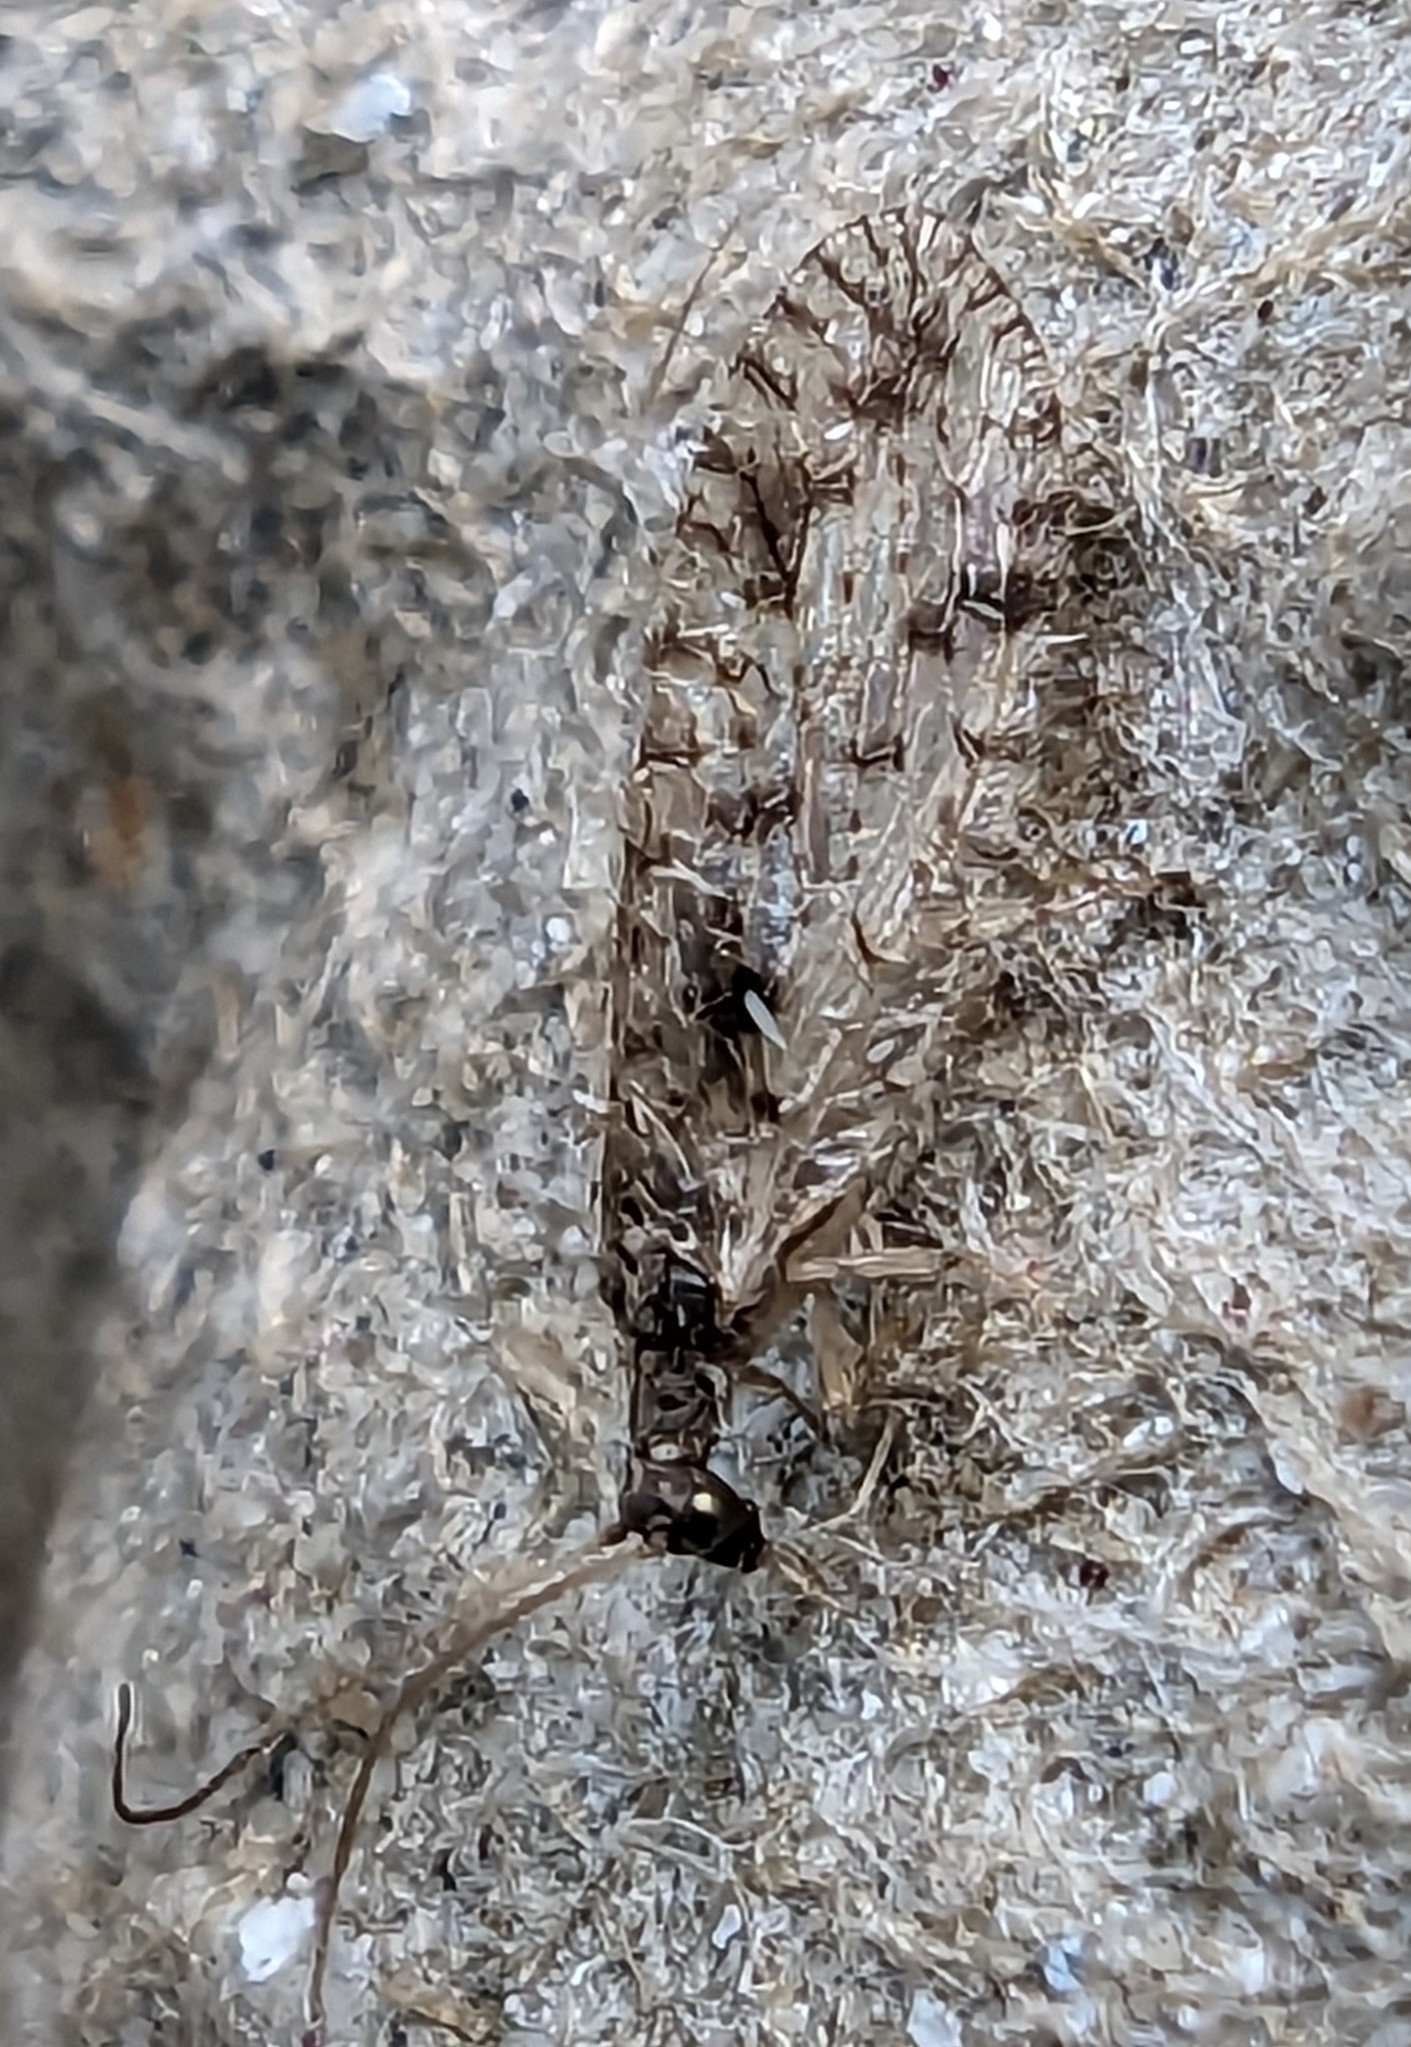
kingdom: Animalia
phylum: Arthropoda
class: Insecta
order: Neuroptera
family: Hemerobiidae
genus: Micromus
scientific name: Micromus variegatus
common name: Brown lacewing
